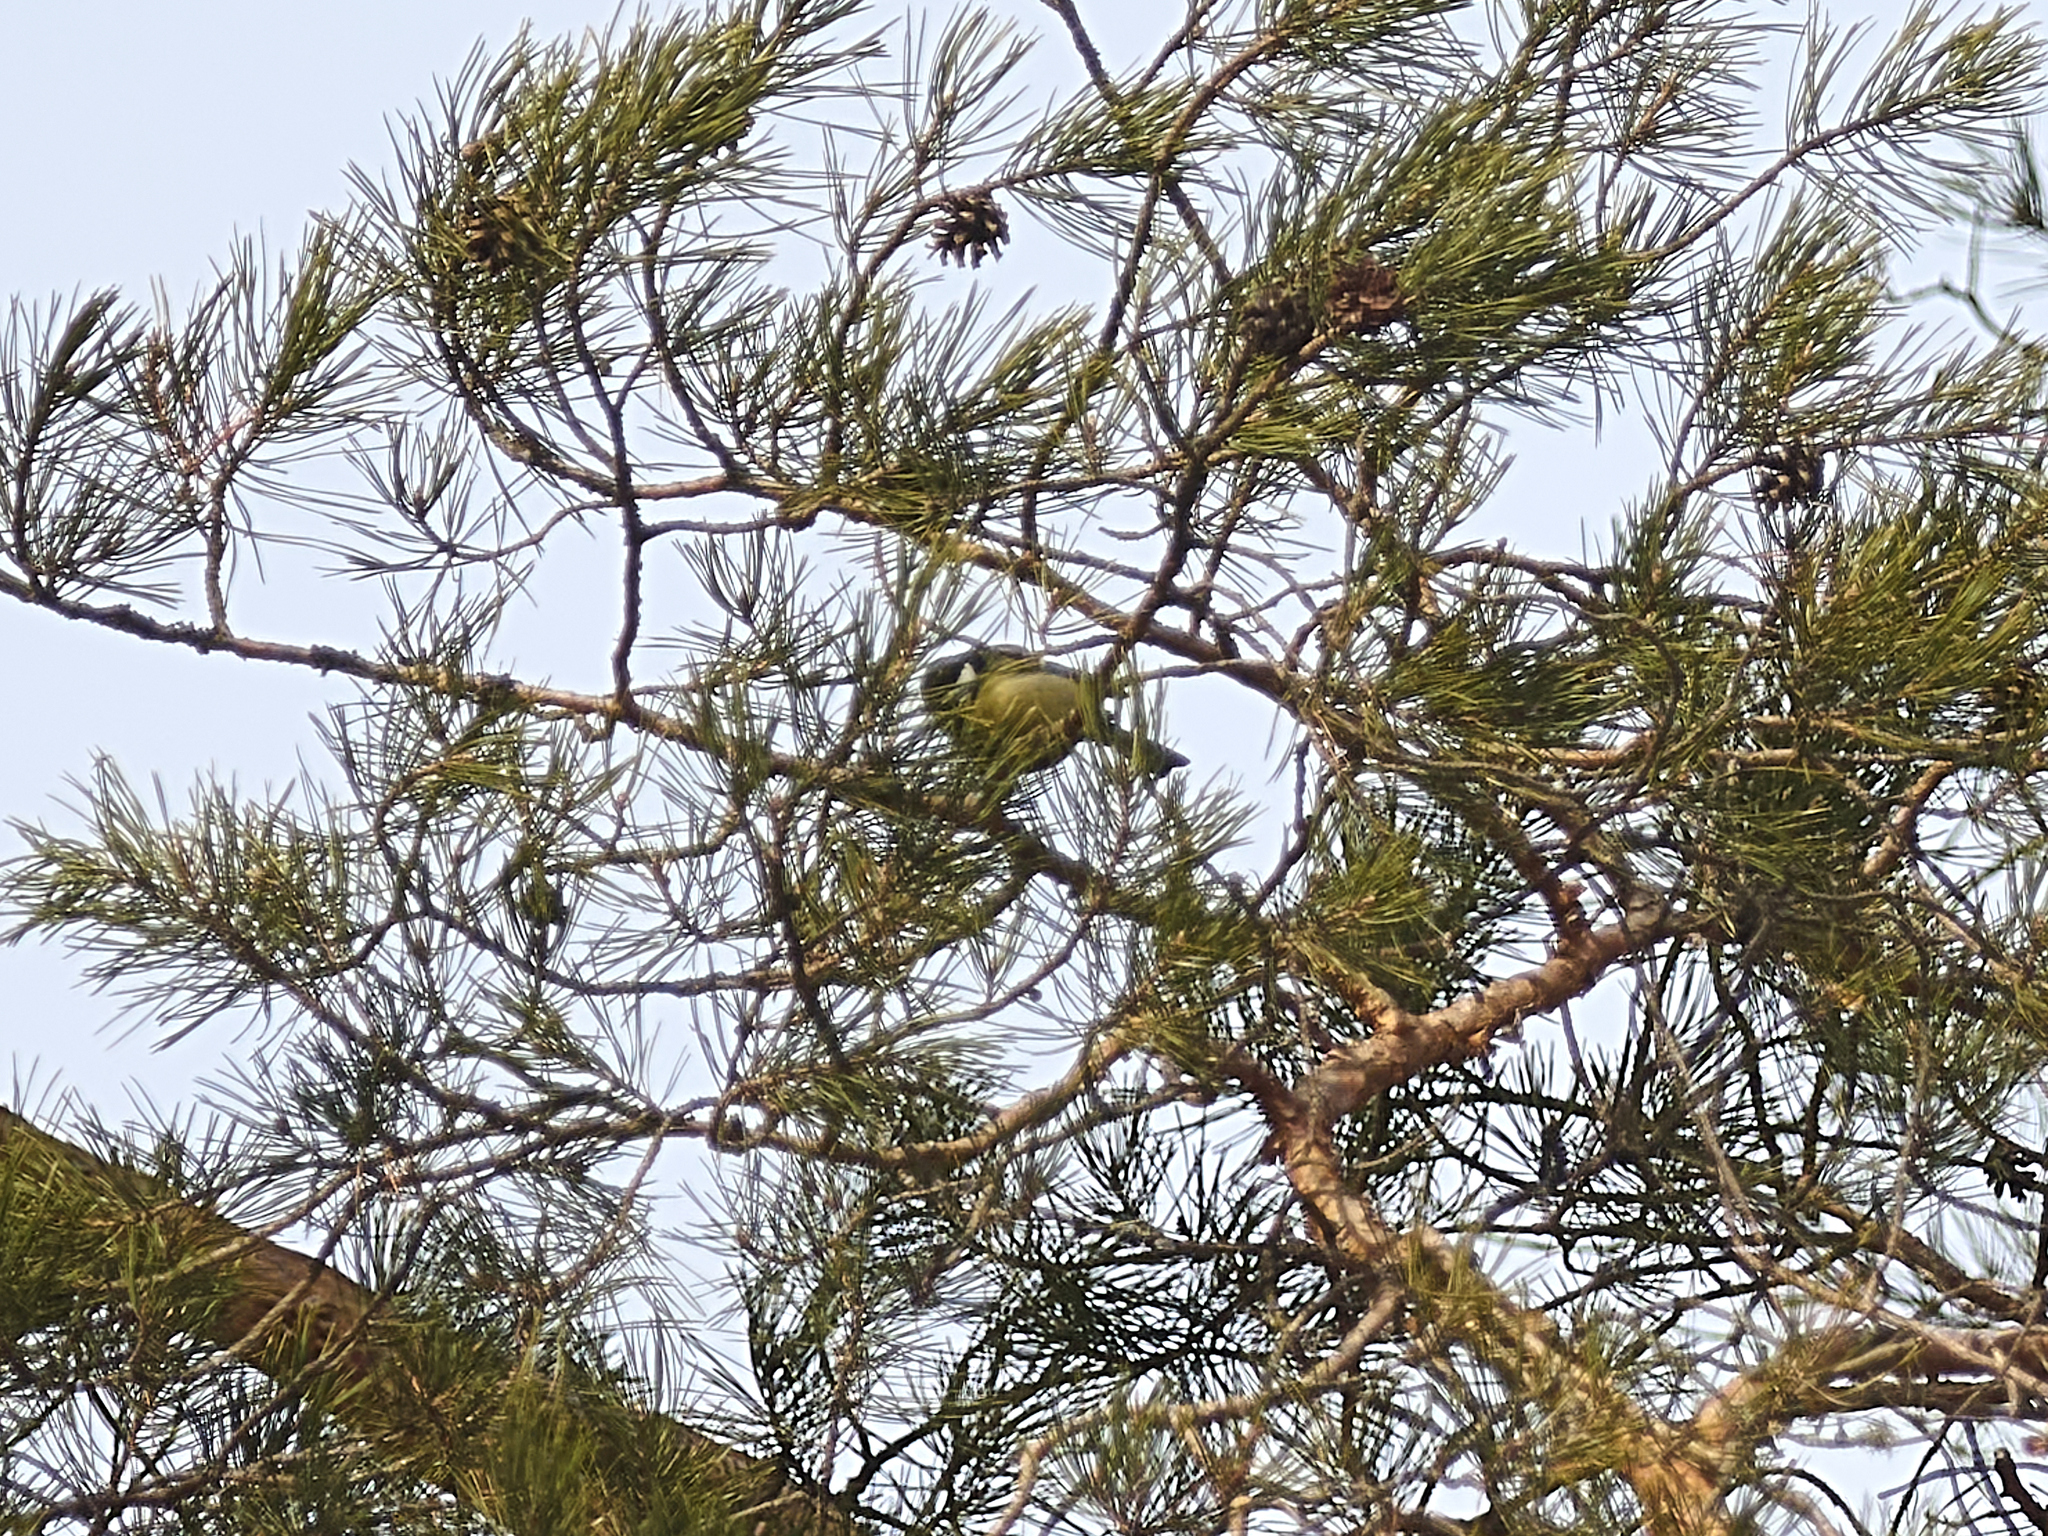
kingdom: Animalia
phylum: Chordata
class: Aves
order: Passeriformes
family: Paridae
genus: Parus
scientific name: Parus major
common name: Great tit
